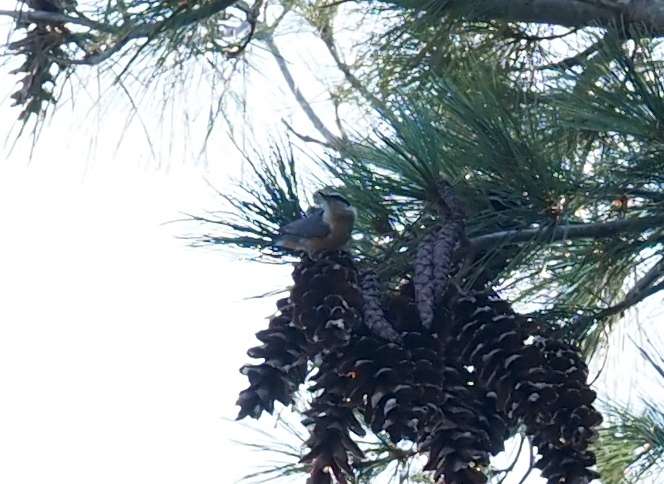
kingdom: Animalia
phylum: Chordata
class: Aves
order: Passeriformes
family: Sittidae
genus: Sitta
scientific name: Sitta canadensis
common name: Red-breasted nuthatch
